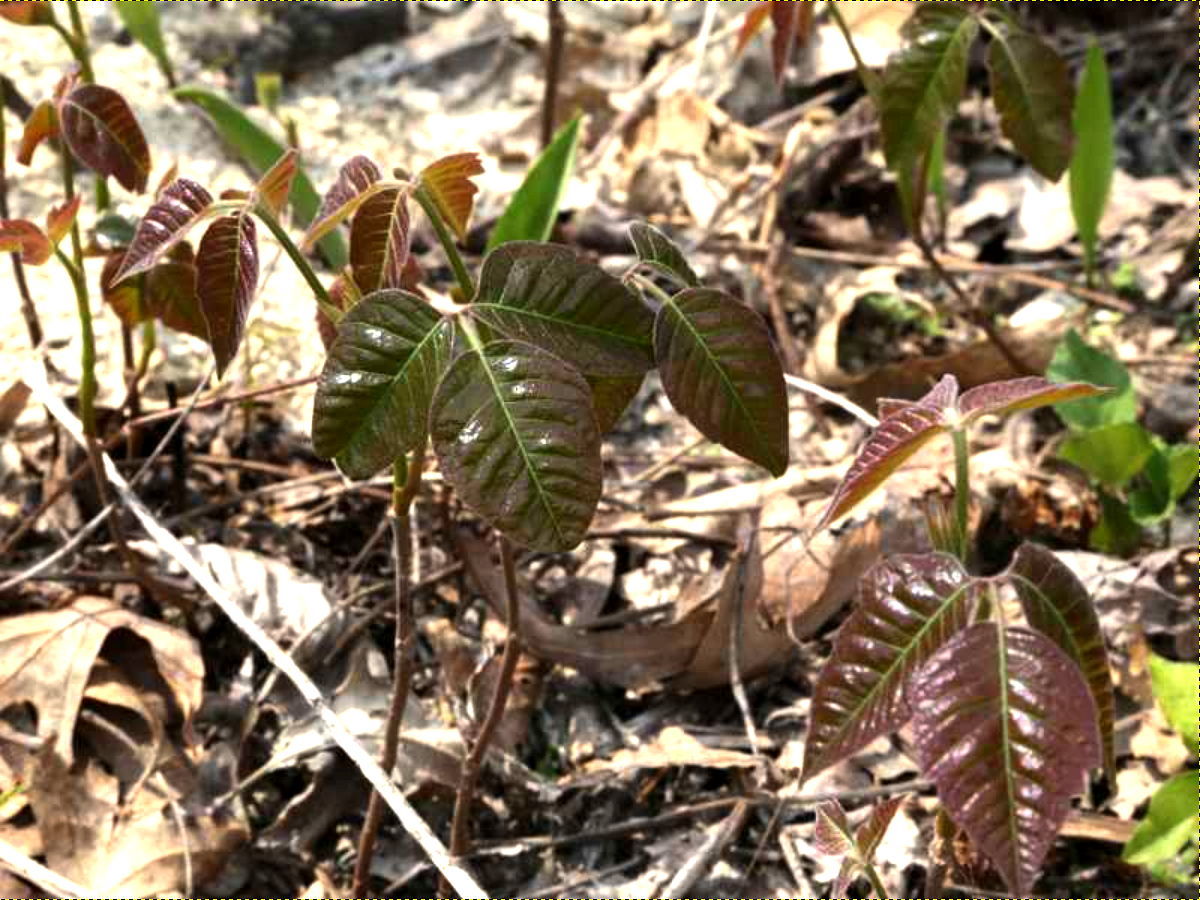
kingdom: Plantae
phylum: Tracheophyta
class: Magnoliopsida
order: Sapindales
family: Anacardiaceae
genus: Toxicodendron
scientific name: Toxicodendron radicans
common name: Poison ivy
